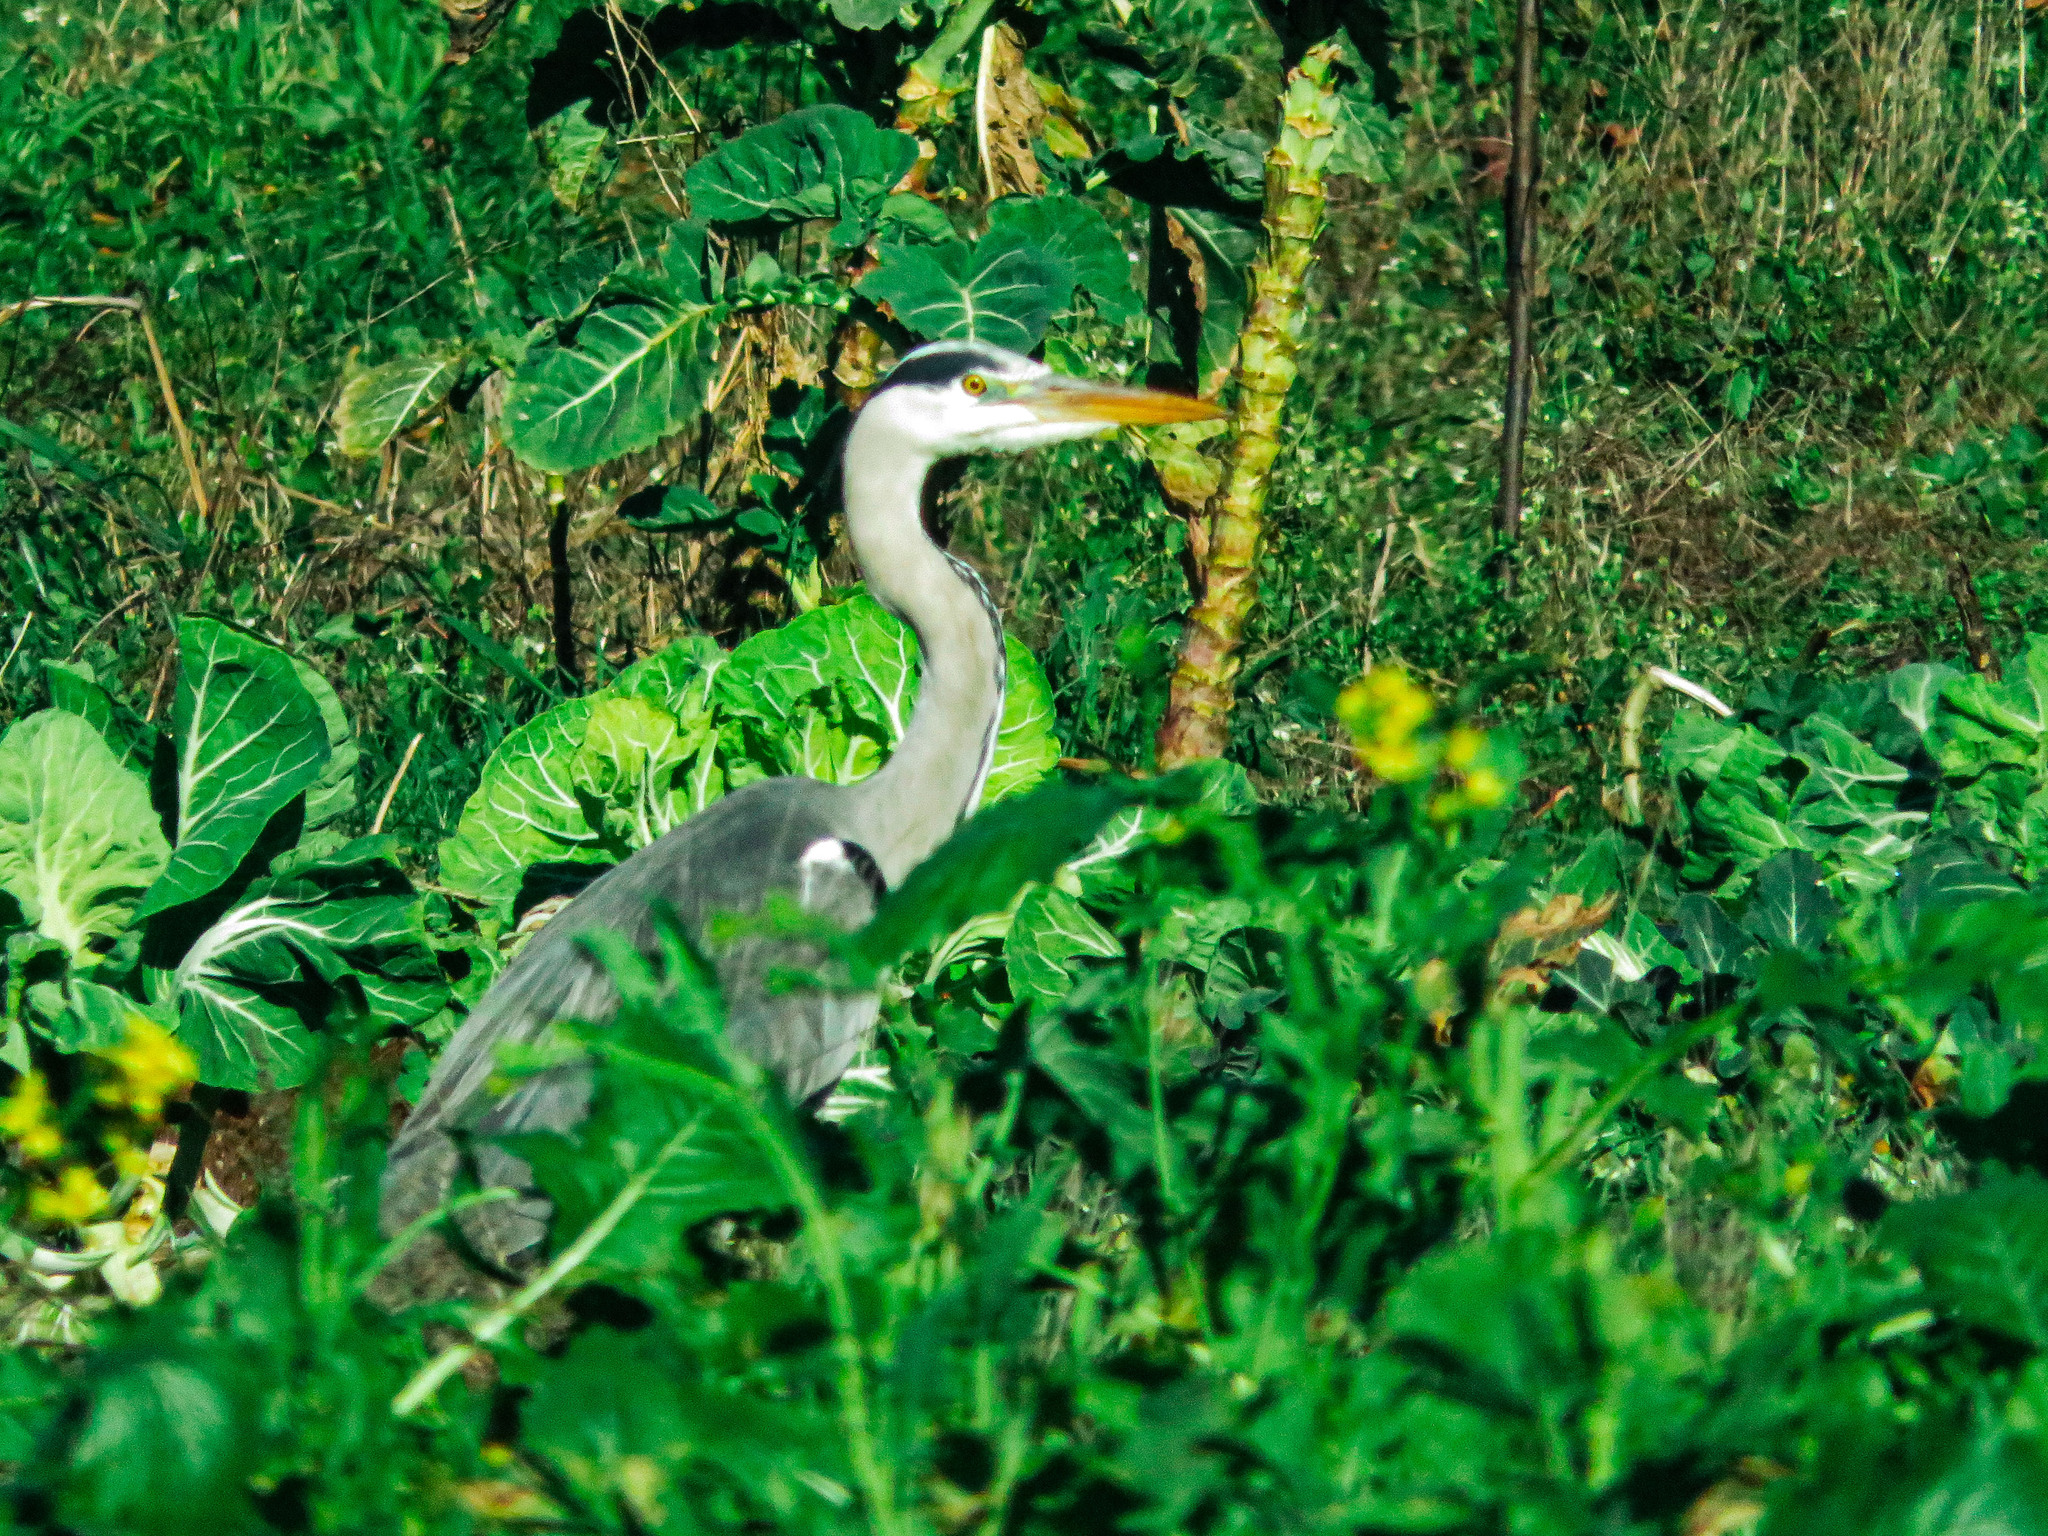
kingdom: Animalia
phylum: Chordata
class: Aves
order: Pelecaniformes
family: Ardeidae
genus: Ardea
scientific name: Ardea cinerea
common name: Grey heron
